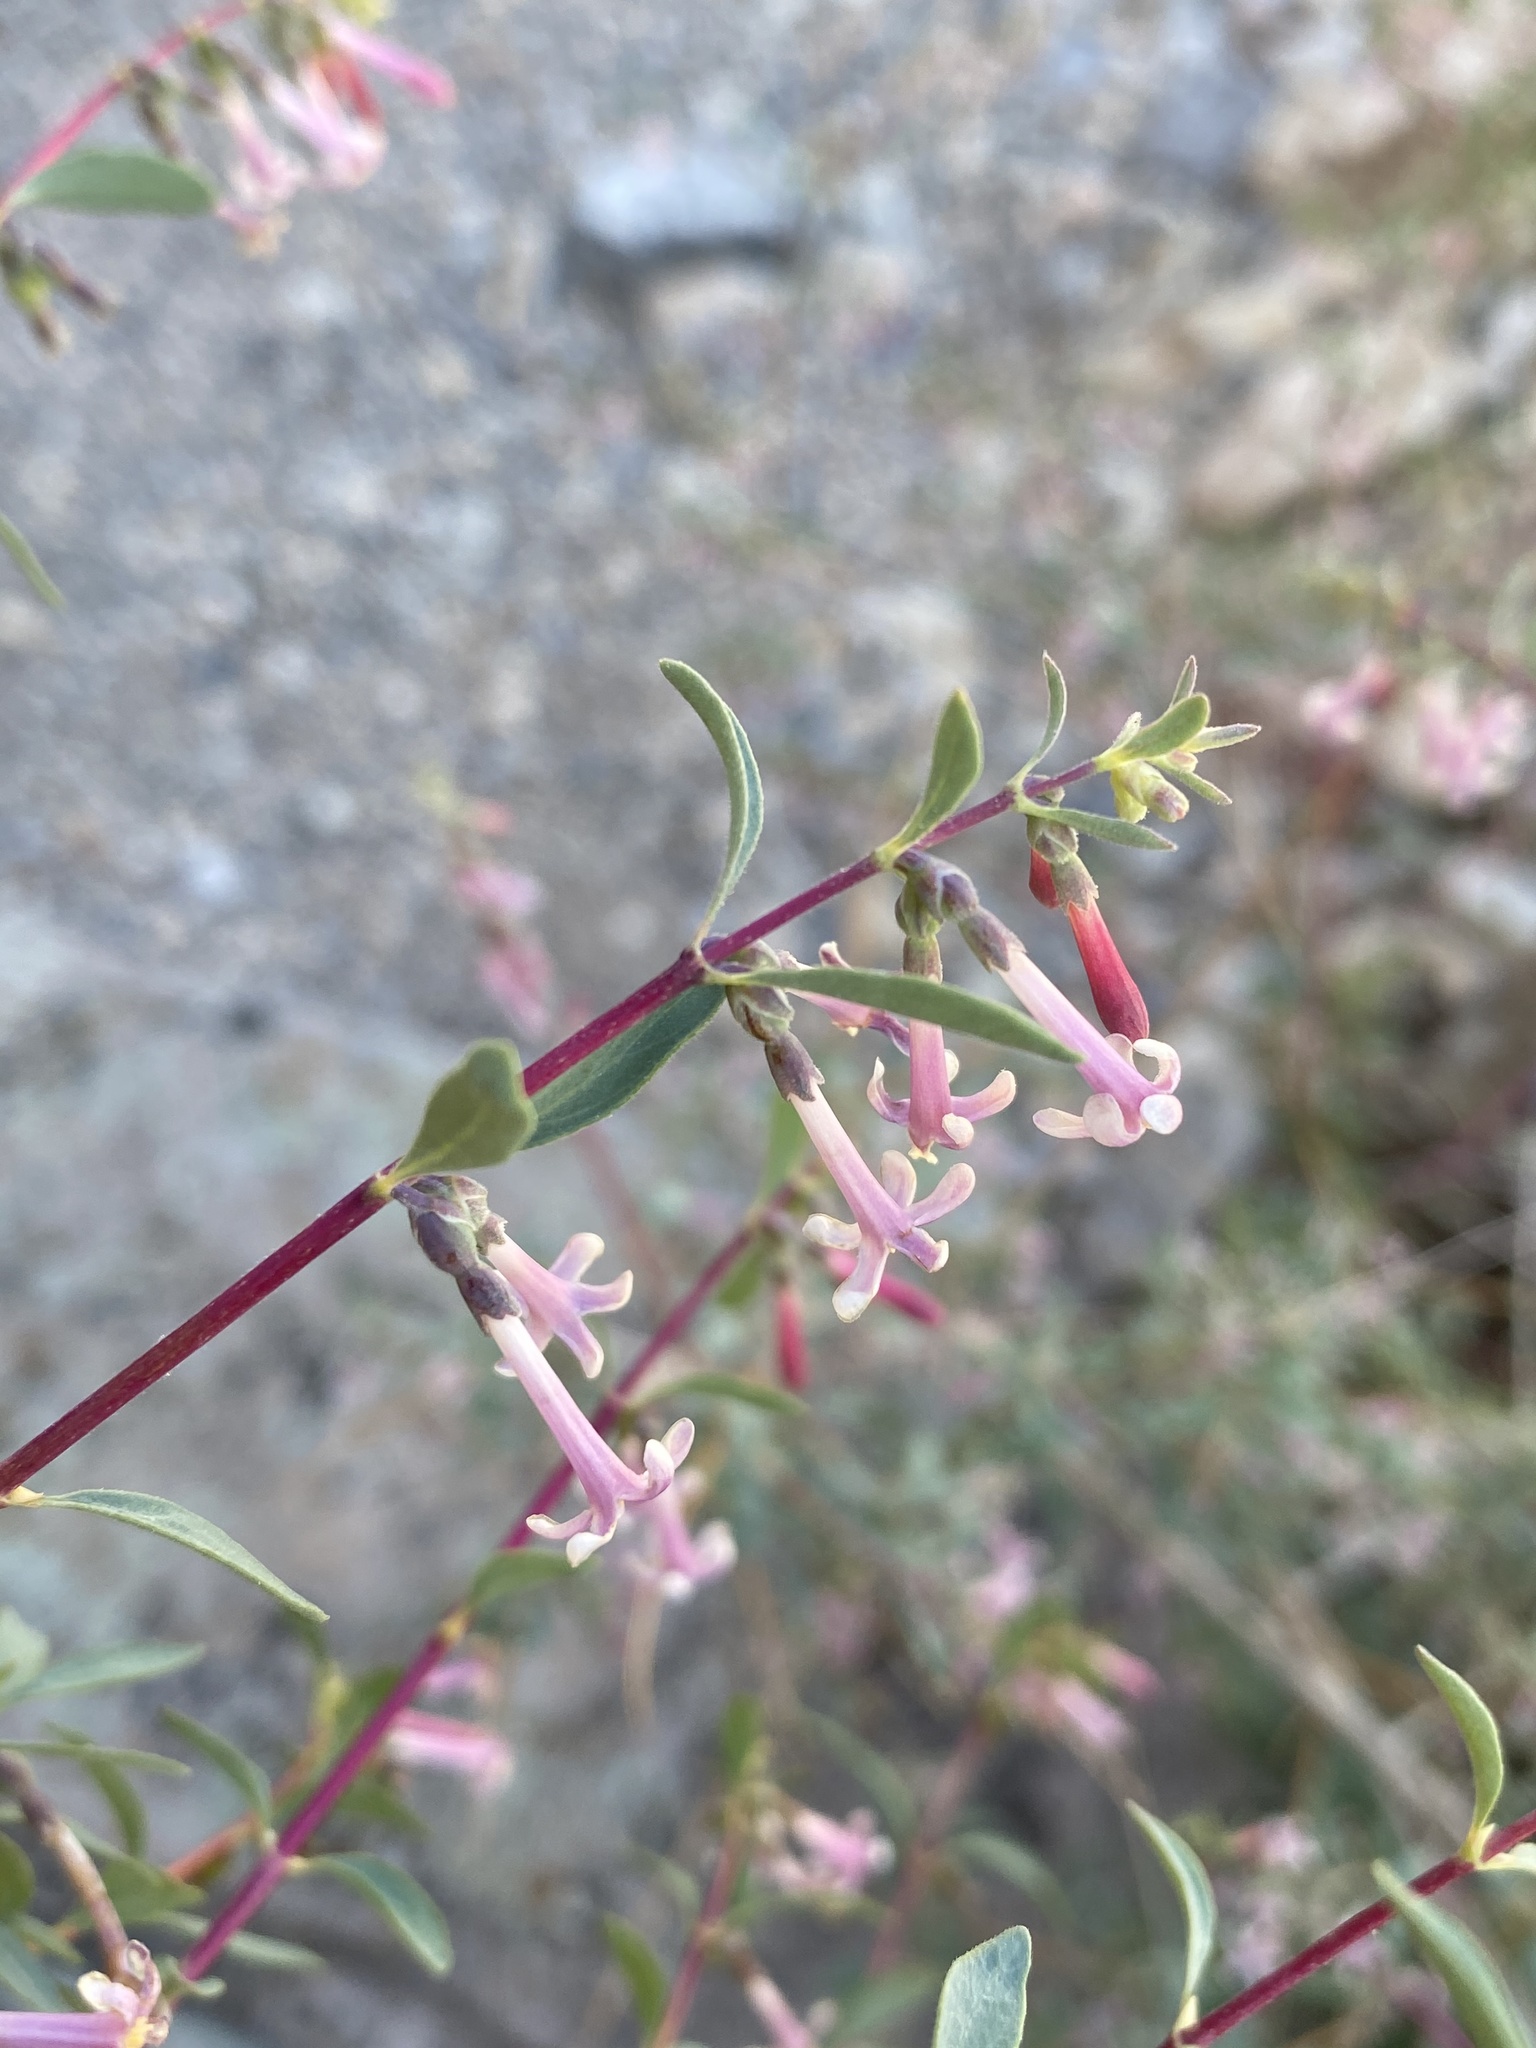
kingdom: Plantae
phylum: Tracheophyta
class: Magnoliopsida
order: Dipsacales
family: Caprifoliaceae
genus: Symphoricarpos
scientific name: Symphoricarpos longiflorus
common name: Fragrant snowberry
